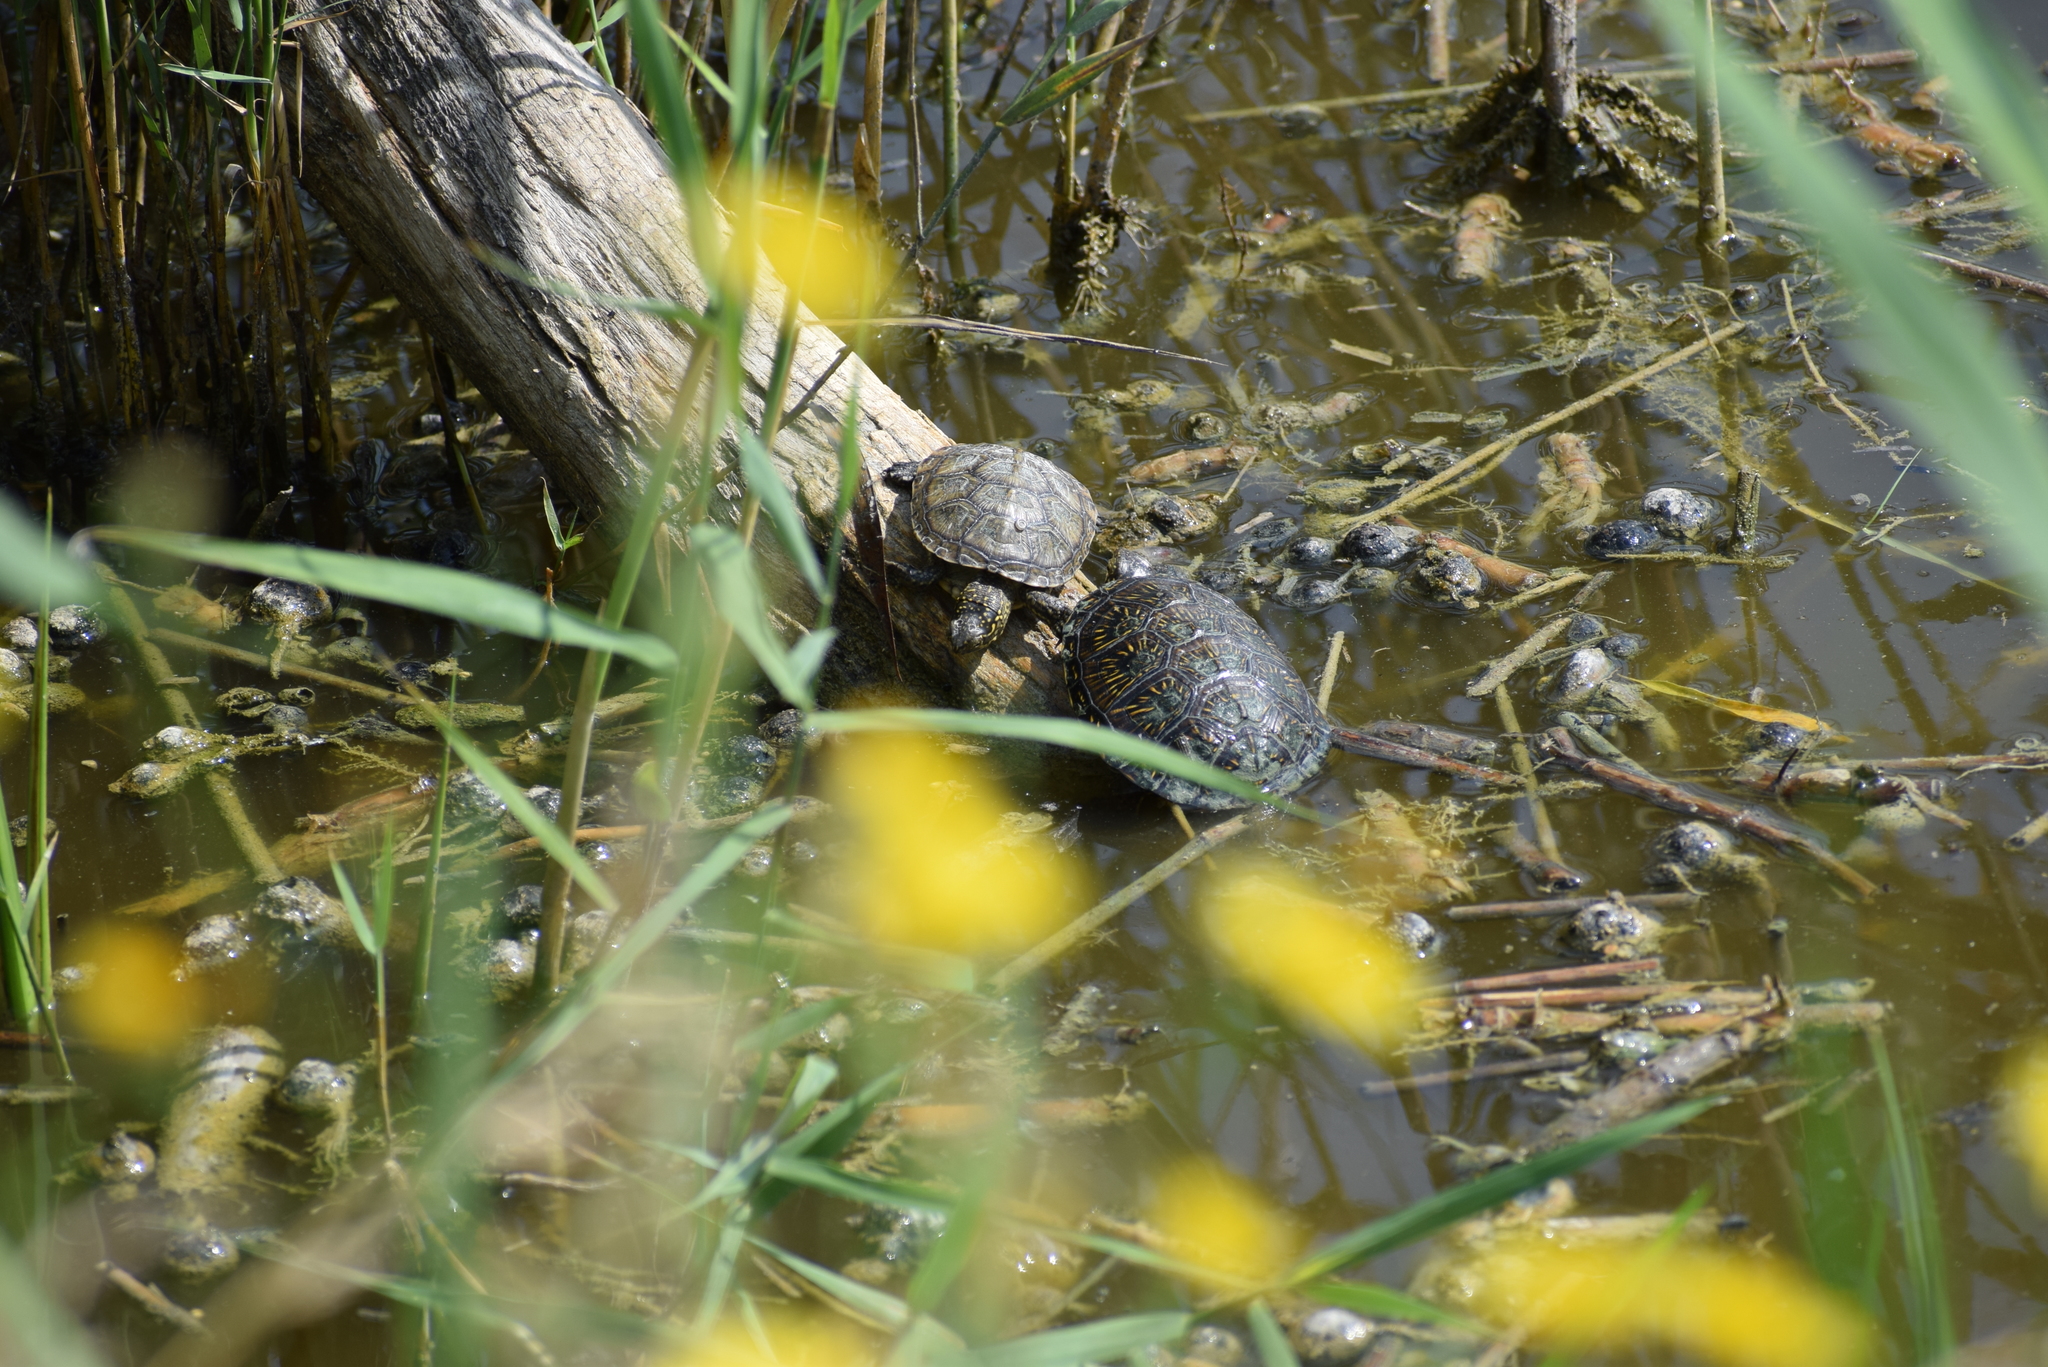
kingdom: Animalia
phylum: Chordata
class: Testudines
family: Emydidae
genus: Emys
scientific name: Emys orbicularis
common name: European pond turtle
